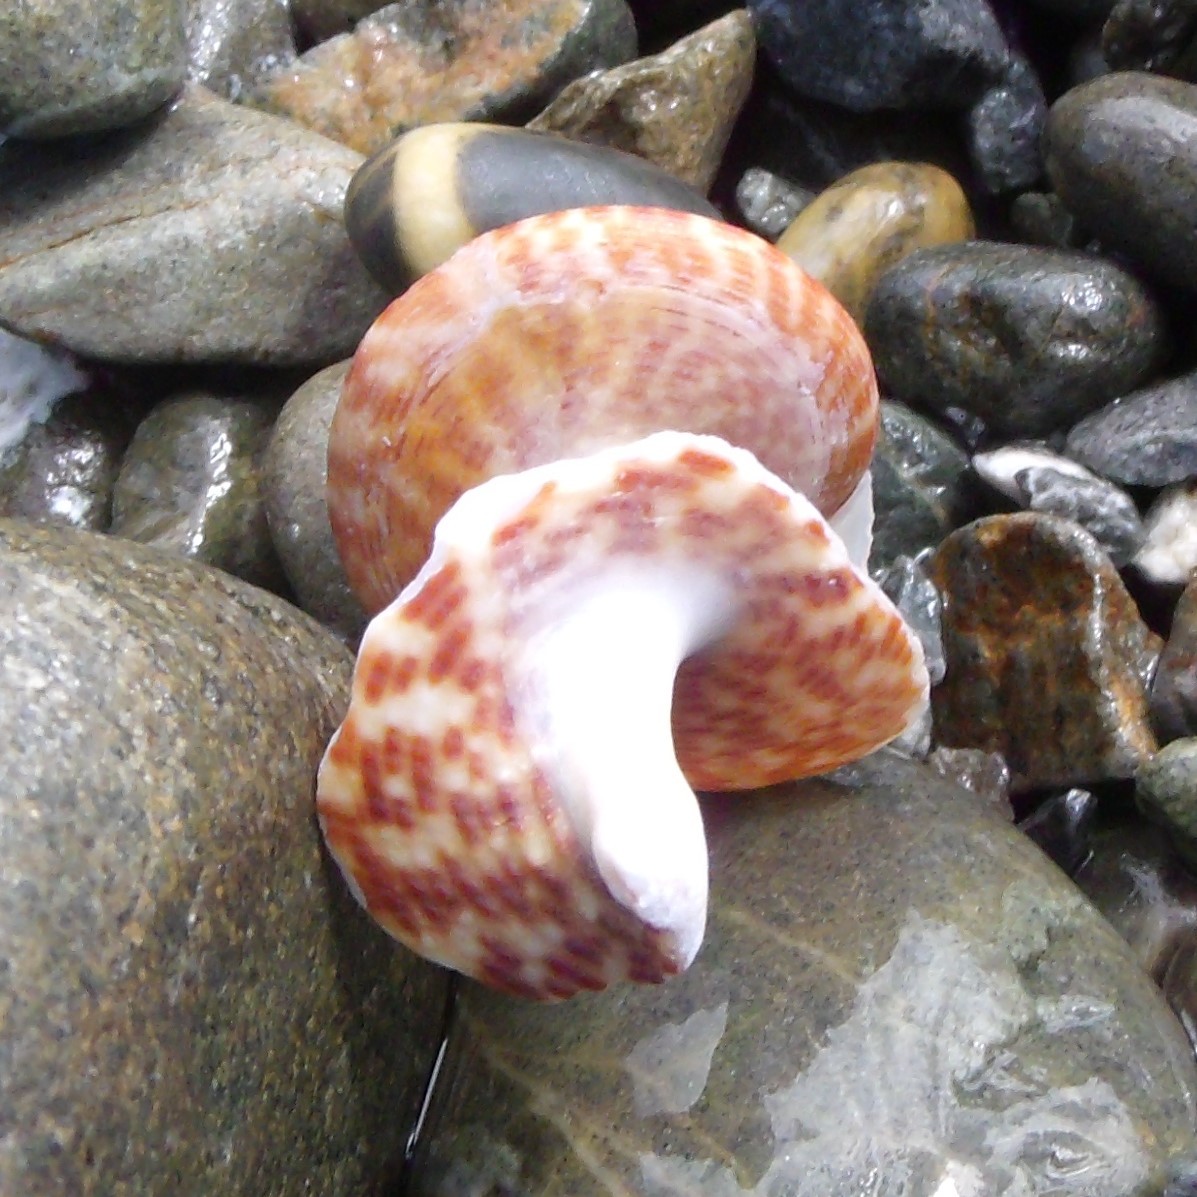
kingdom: Animalia
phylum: Mollusca
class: Gastropoda
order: Trochida
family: Calliostomatidae
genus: Maurea
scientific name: Maurea tigris
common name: Tiger maurea
